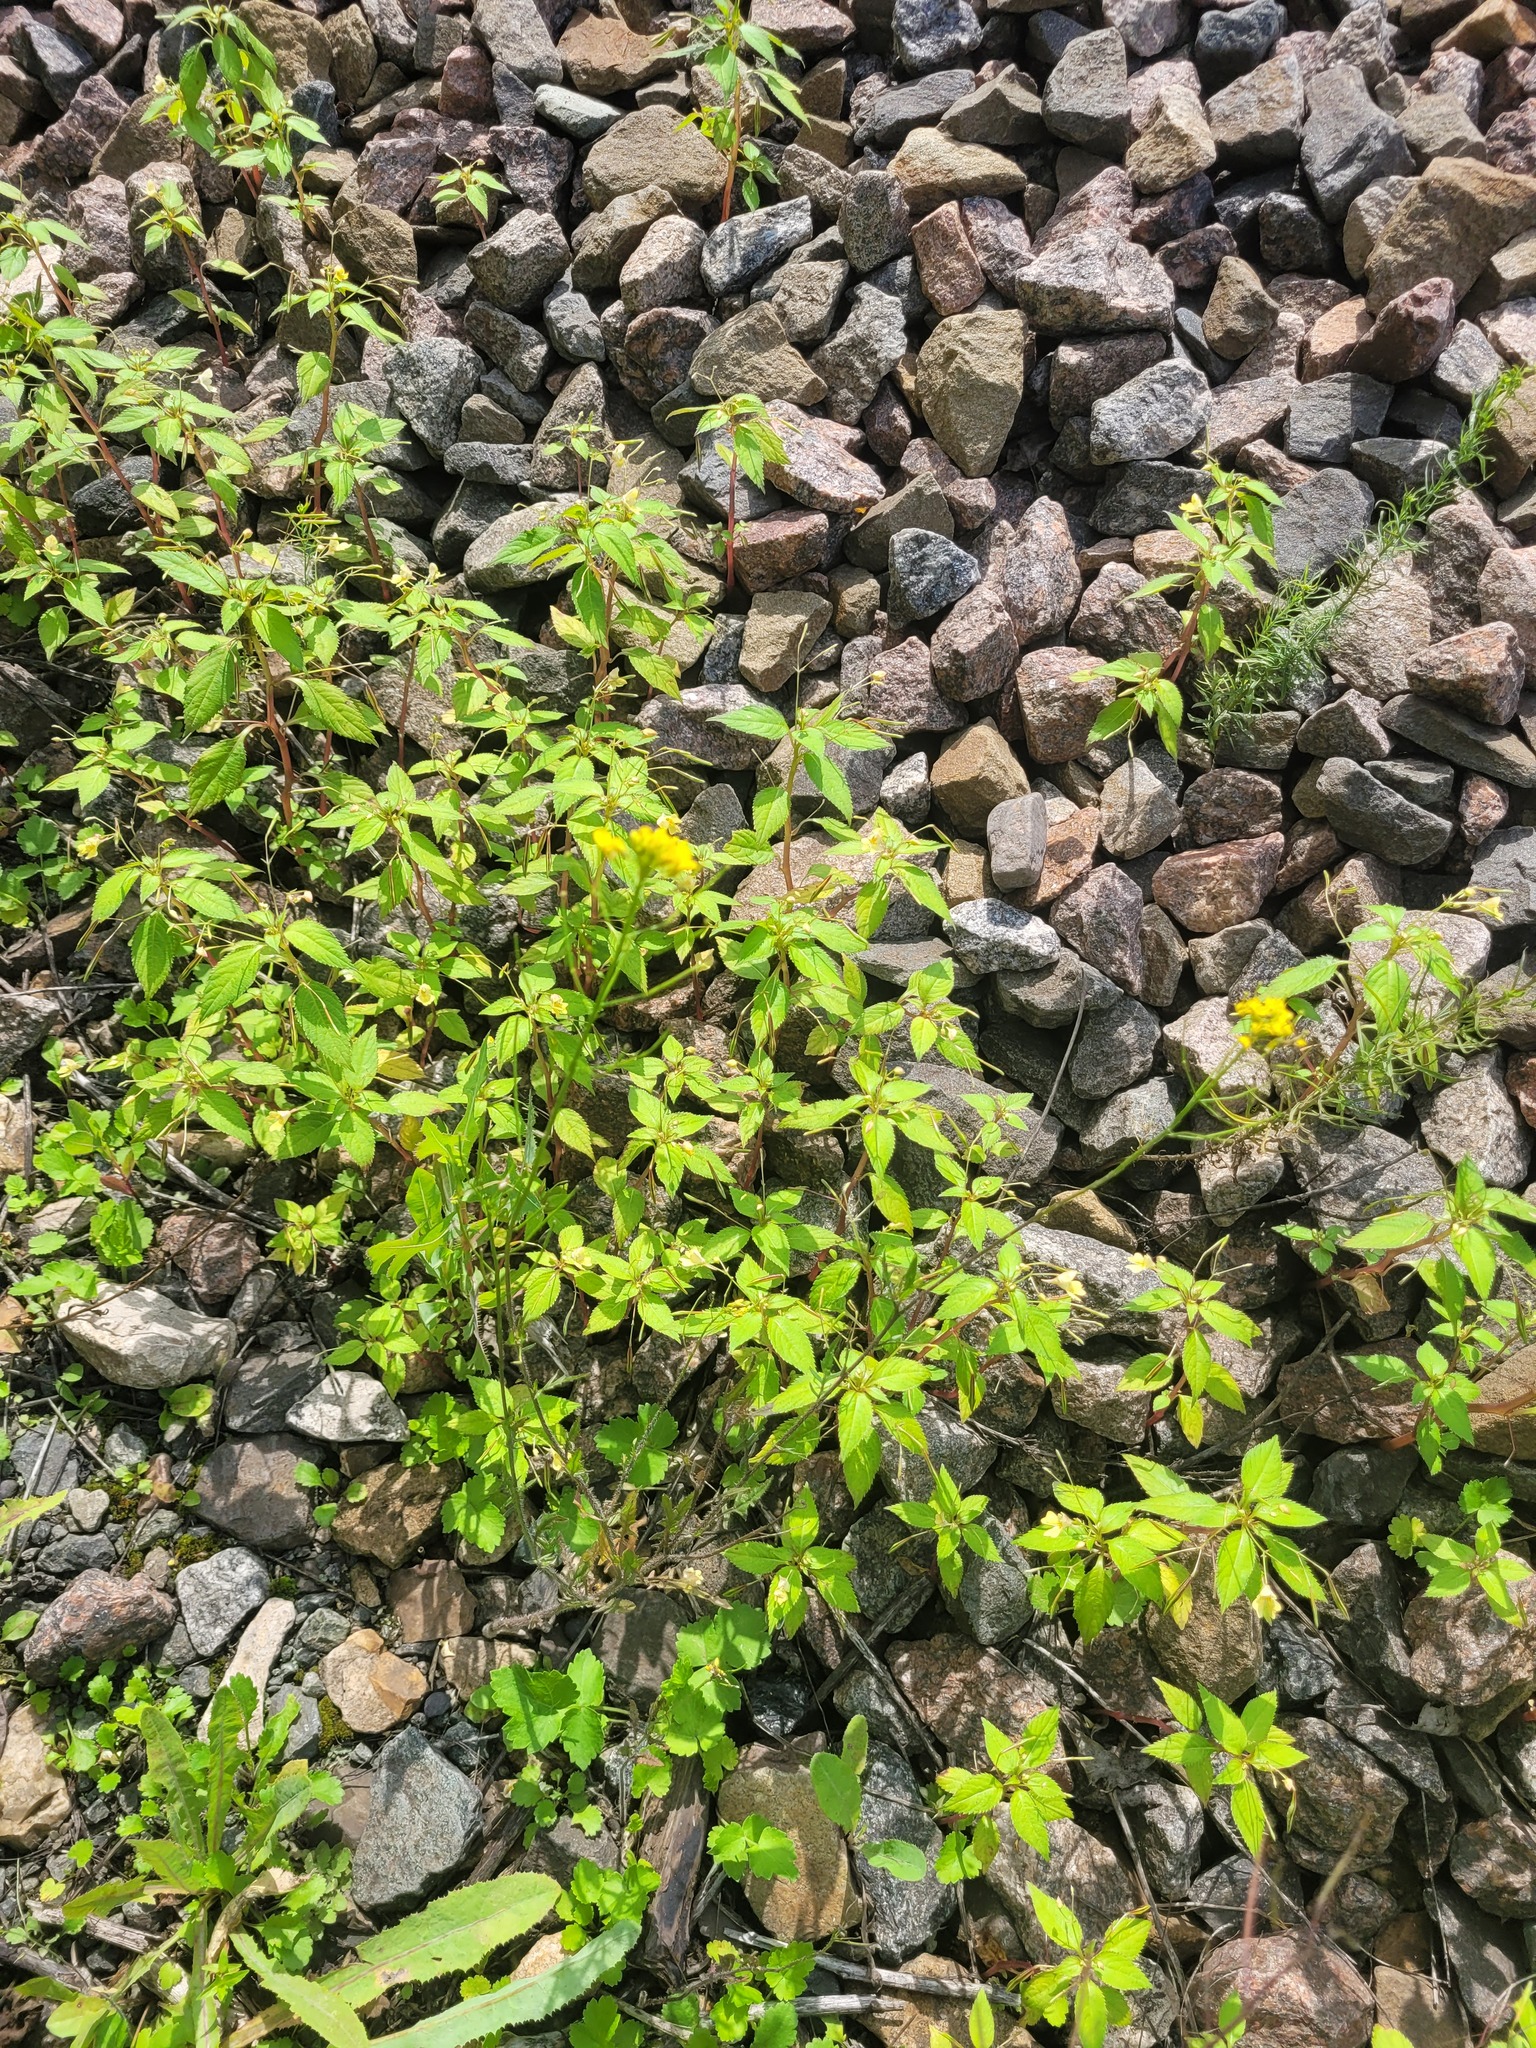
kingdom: Plantae
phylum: Tracheophyta
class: Magnoliopsida
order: Brassicales
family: Brassicaceae
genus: Sisymbrium
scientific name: Sisymbrium loeselii
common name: False london-rocket
